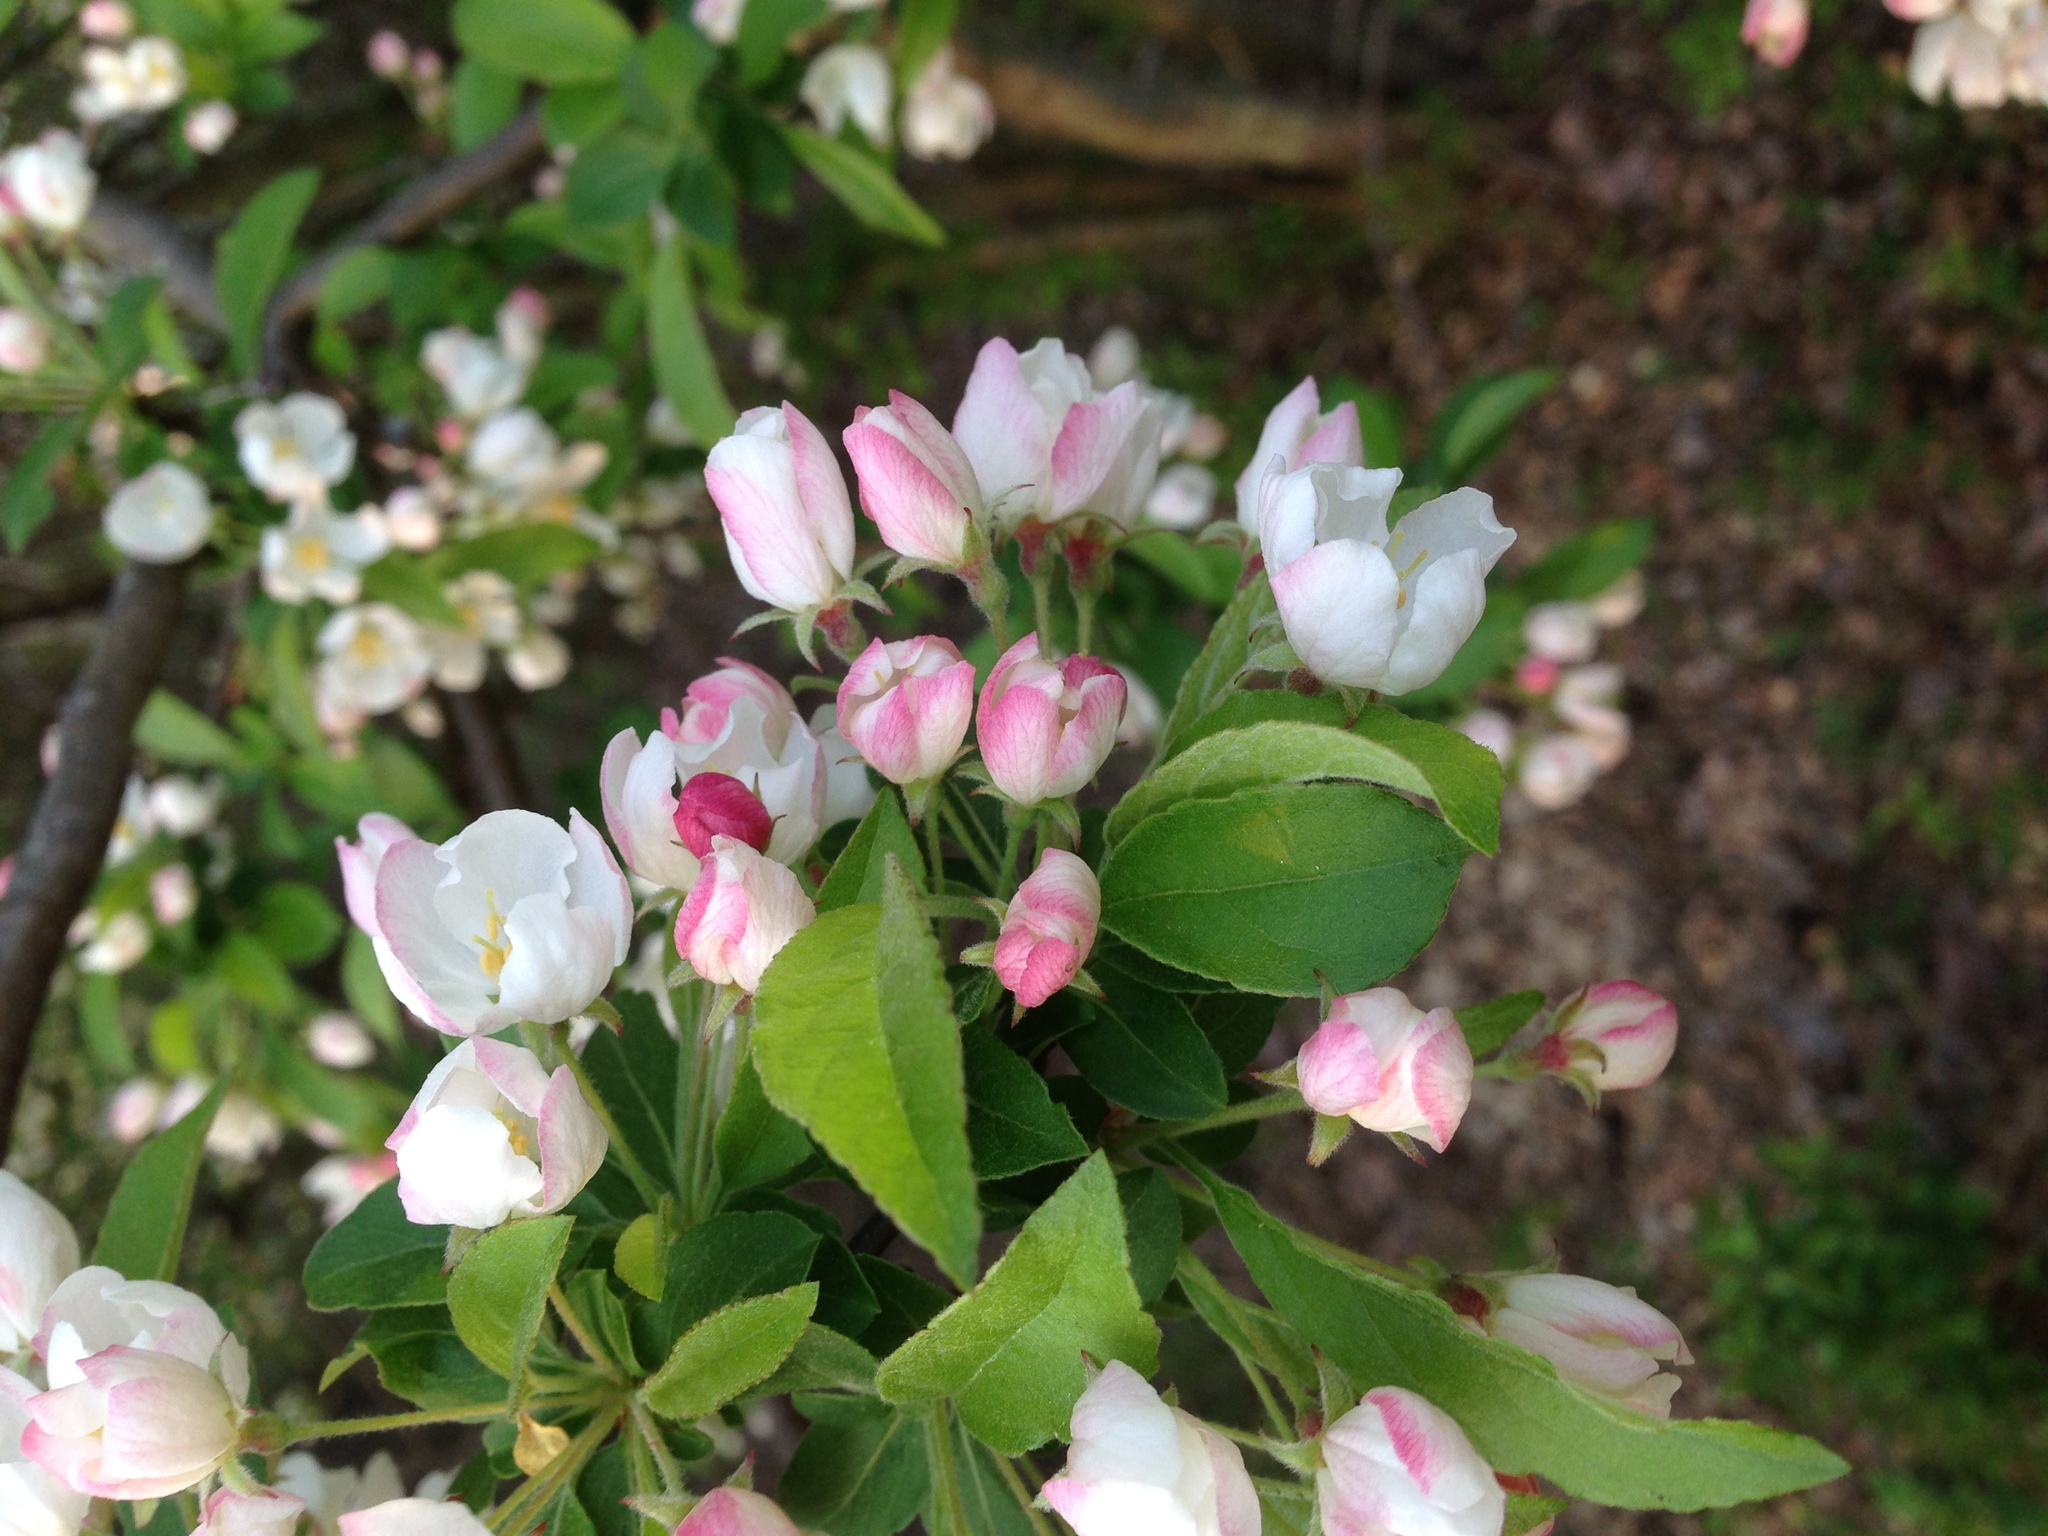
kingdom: Plantae
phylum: Tracheophyta
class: Magnoliopsida
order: Rosales
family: Rosaceae
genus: Malus
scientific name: Malus domestica
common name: Apple
